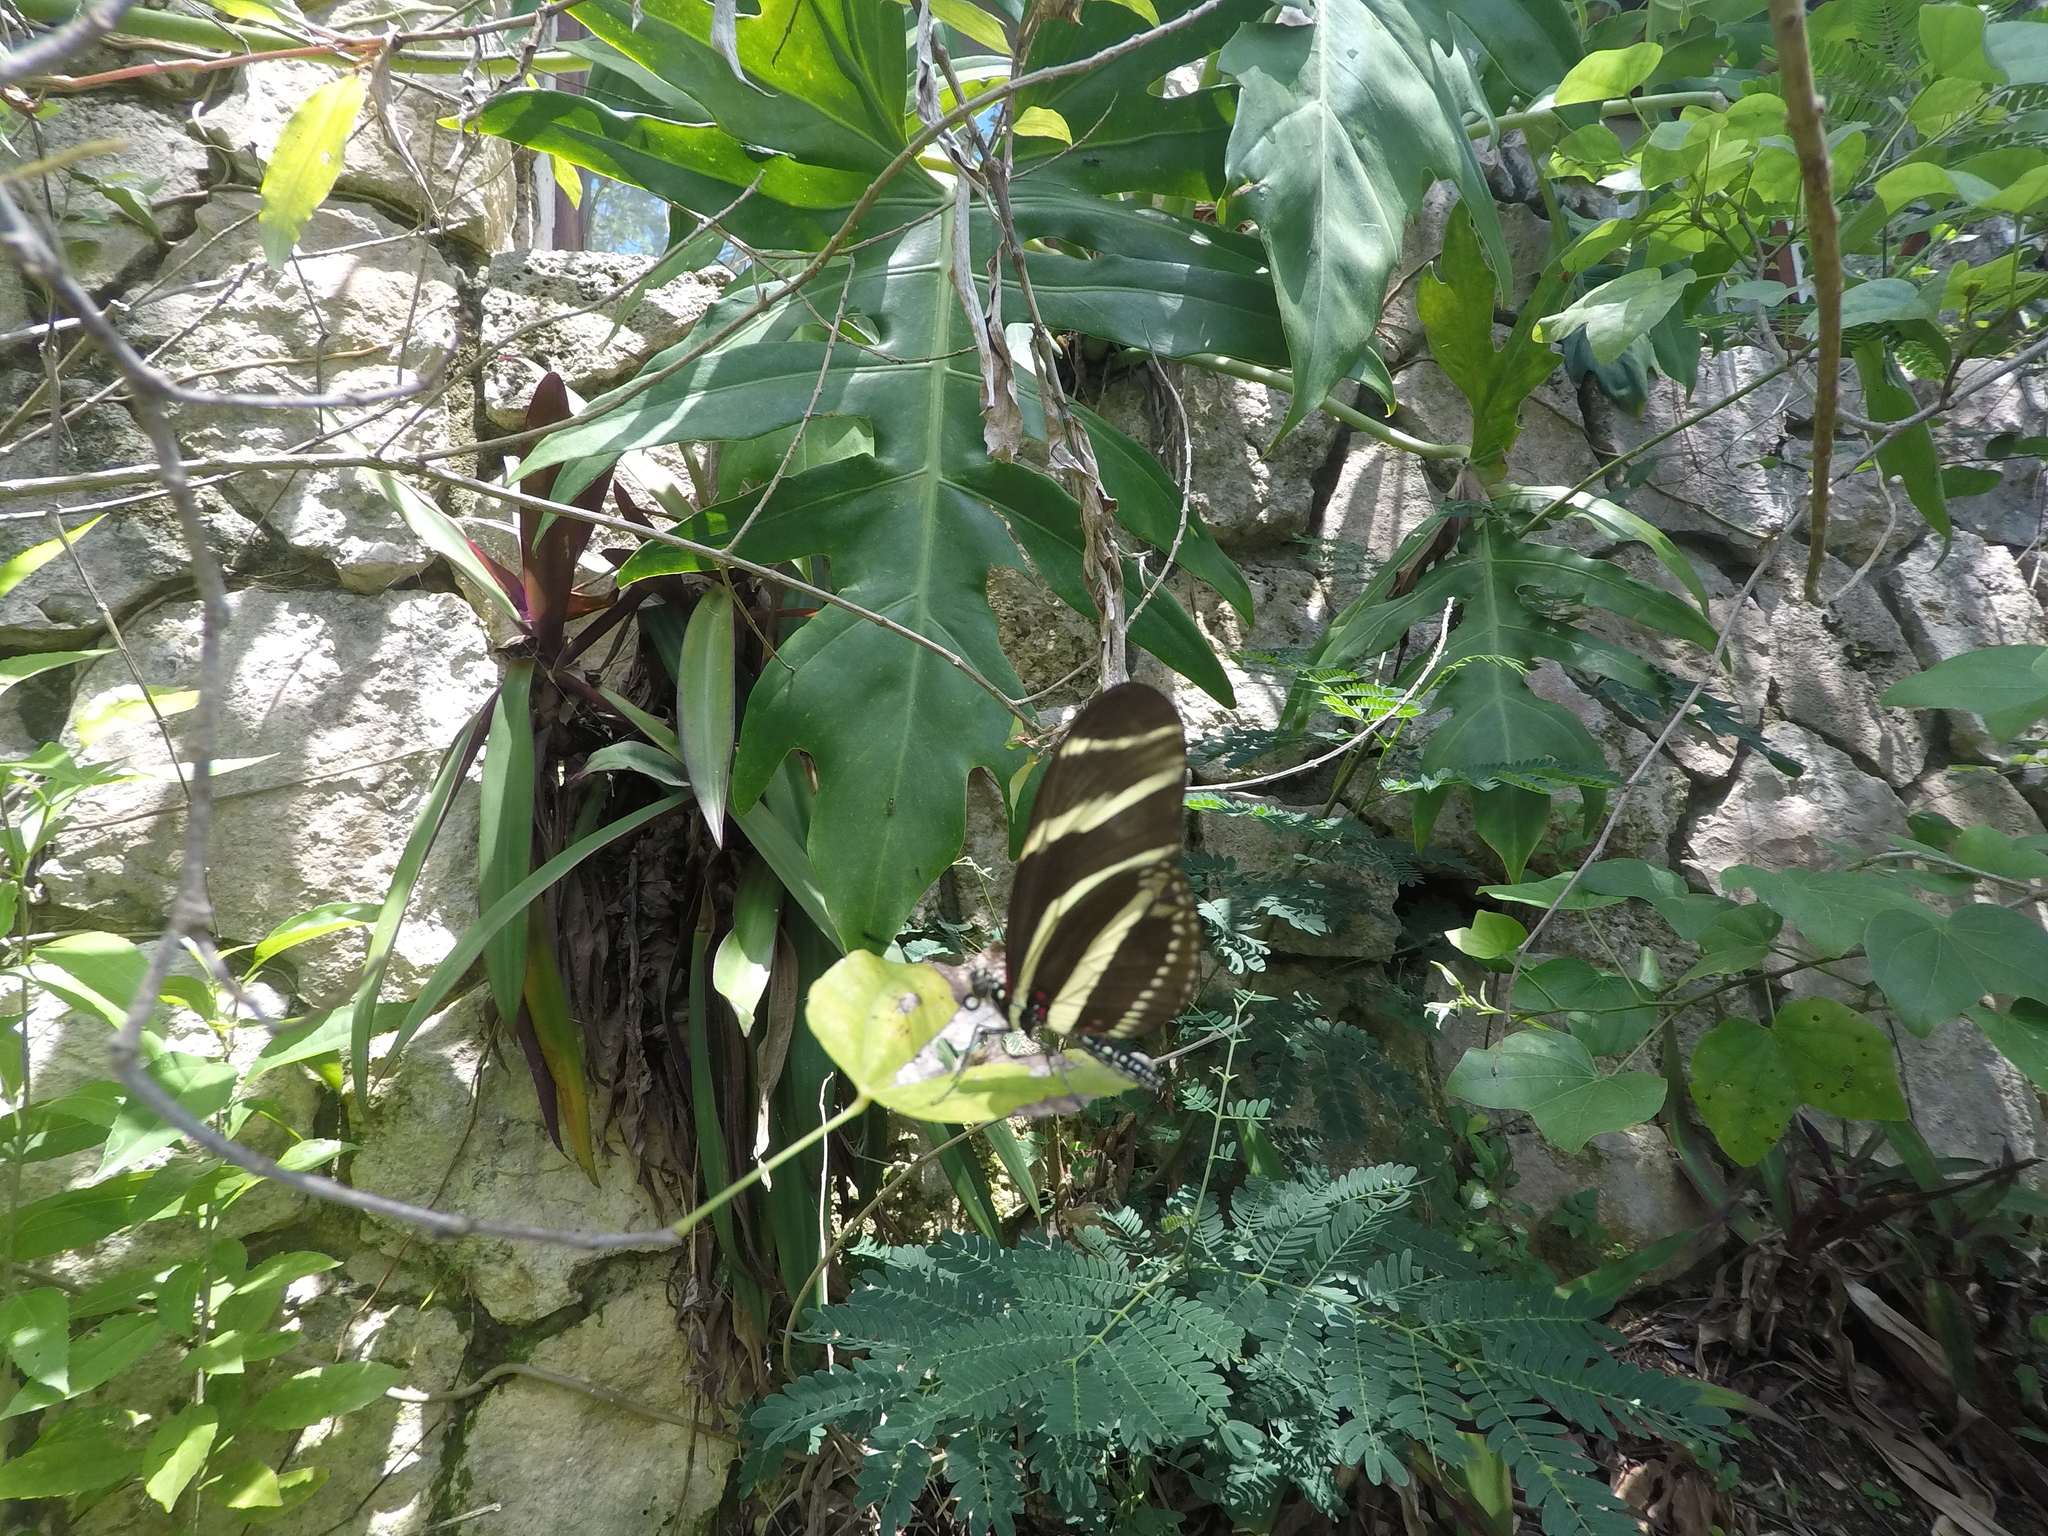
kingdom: Animalia
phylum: Arthropoda
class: Insecta
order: Lepidoptera
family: Nymphalidae
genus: Heliconius
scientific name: Heliconius charithonia
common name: Zebra long wing
